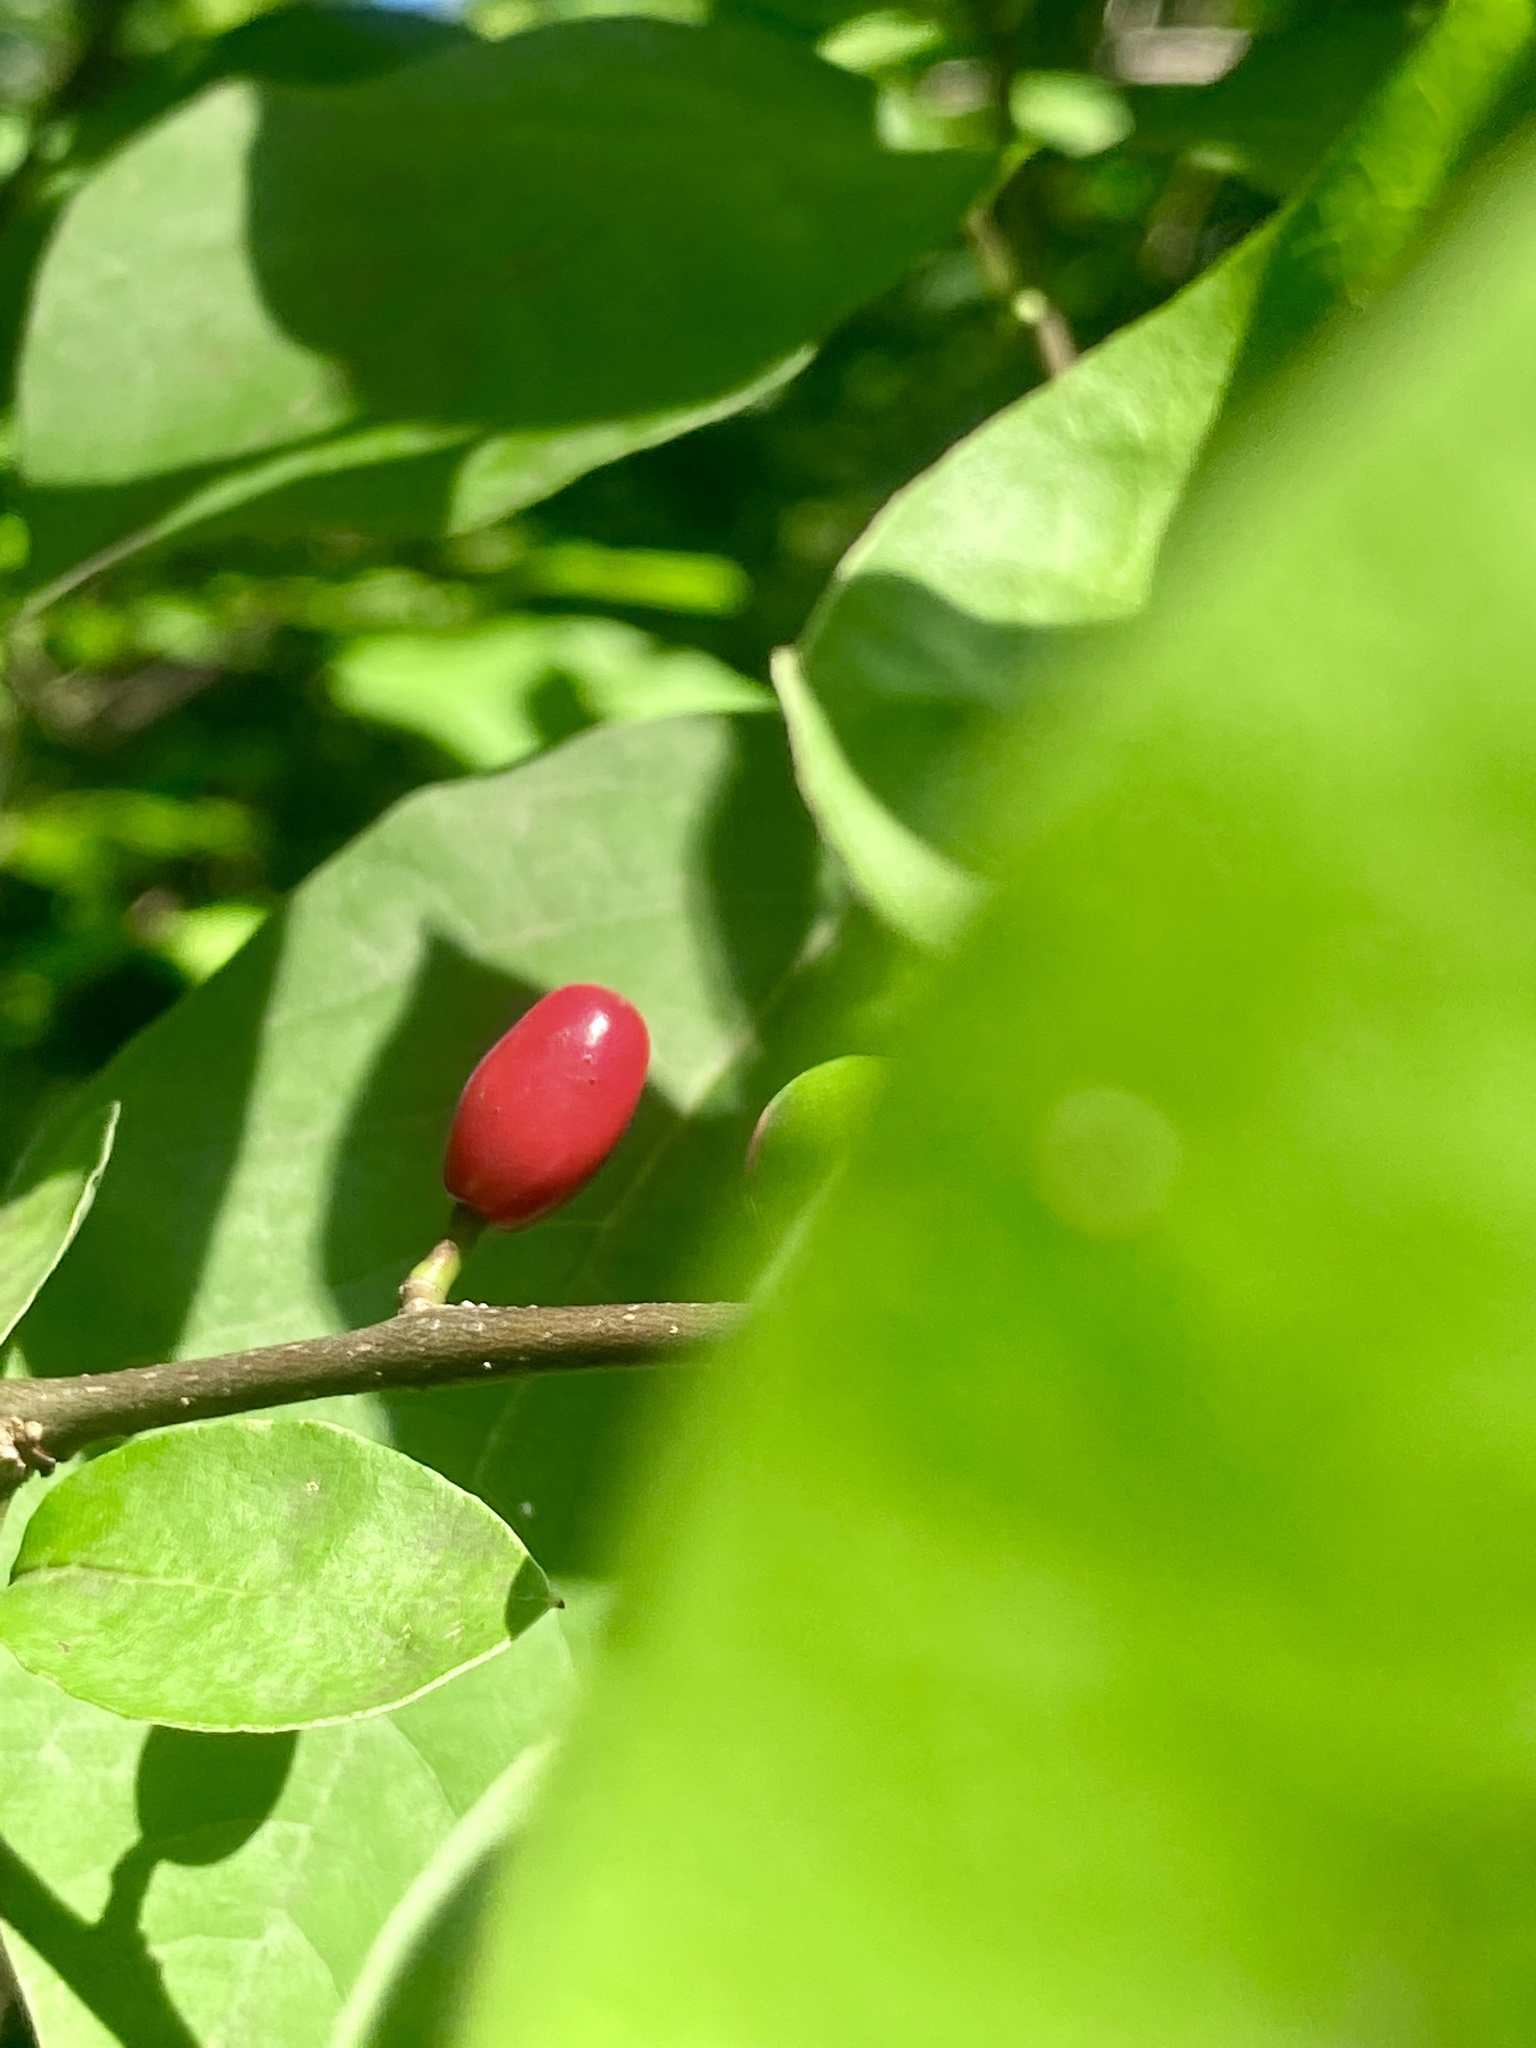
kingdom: Plantae
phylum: Tracheophyta
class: Magnoliopsida
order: Laurales
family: Lauraceae
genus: Lindera
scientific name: Lindera benzoin
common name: Spicebush
